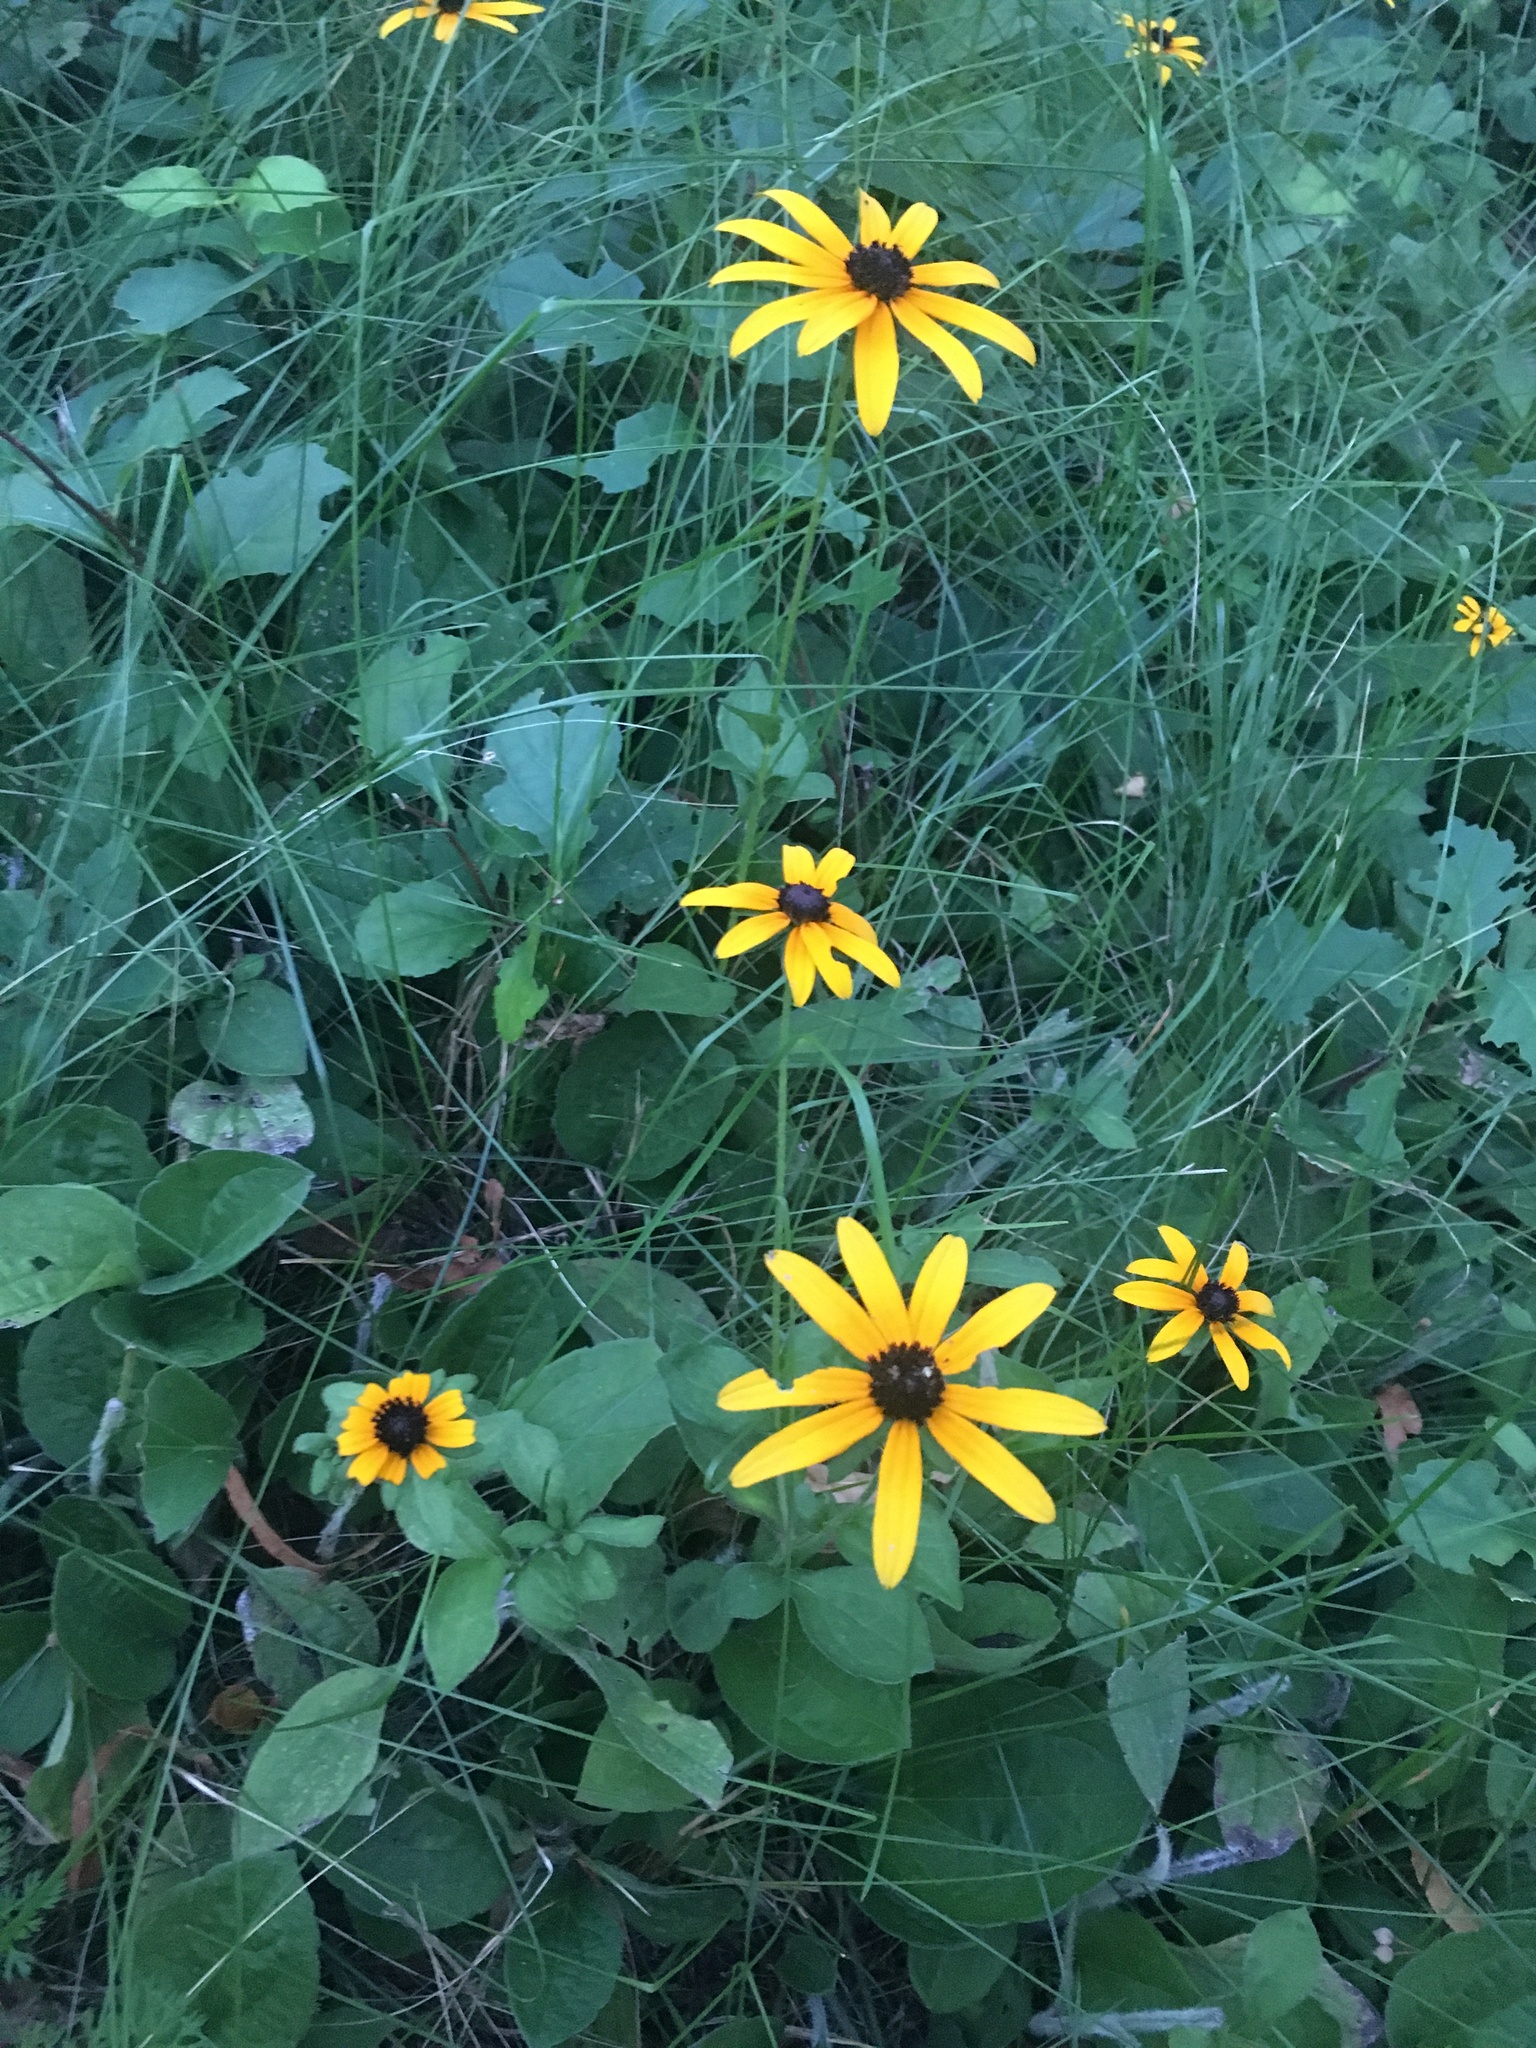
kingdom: Plantae
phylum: Tracheophyta
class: Magnoliopsida
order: Asterales
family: Asteraceae
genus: Rudbeckia
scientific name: Rudbeckia hirta
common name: Black-eyed-susan
